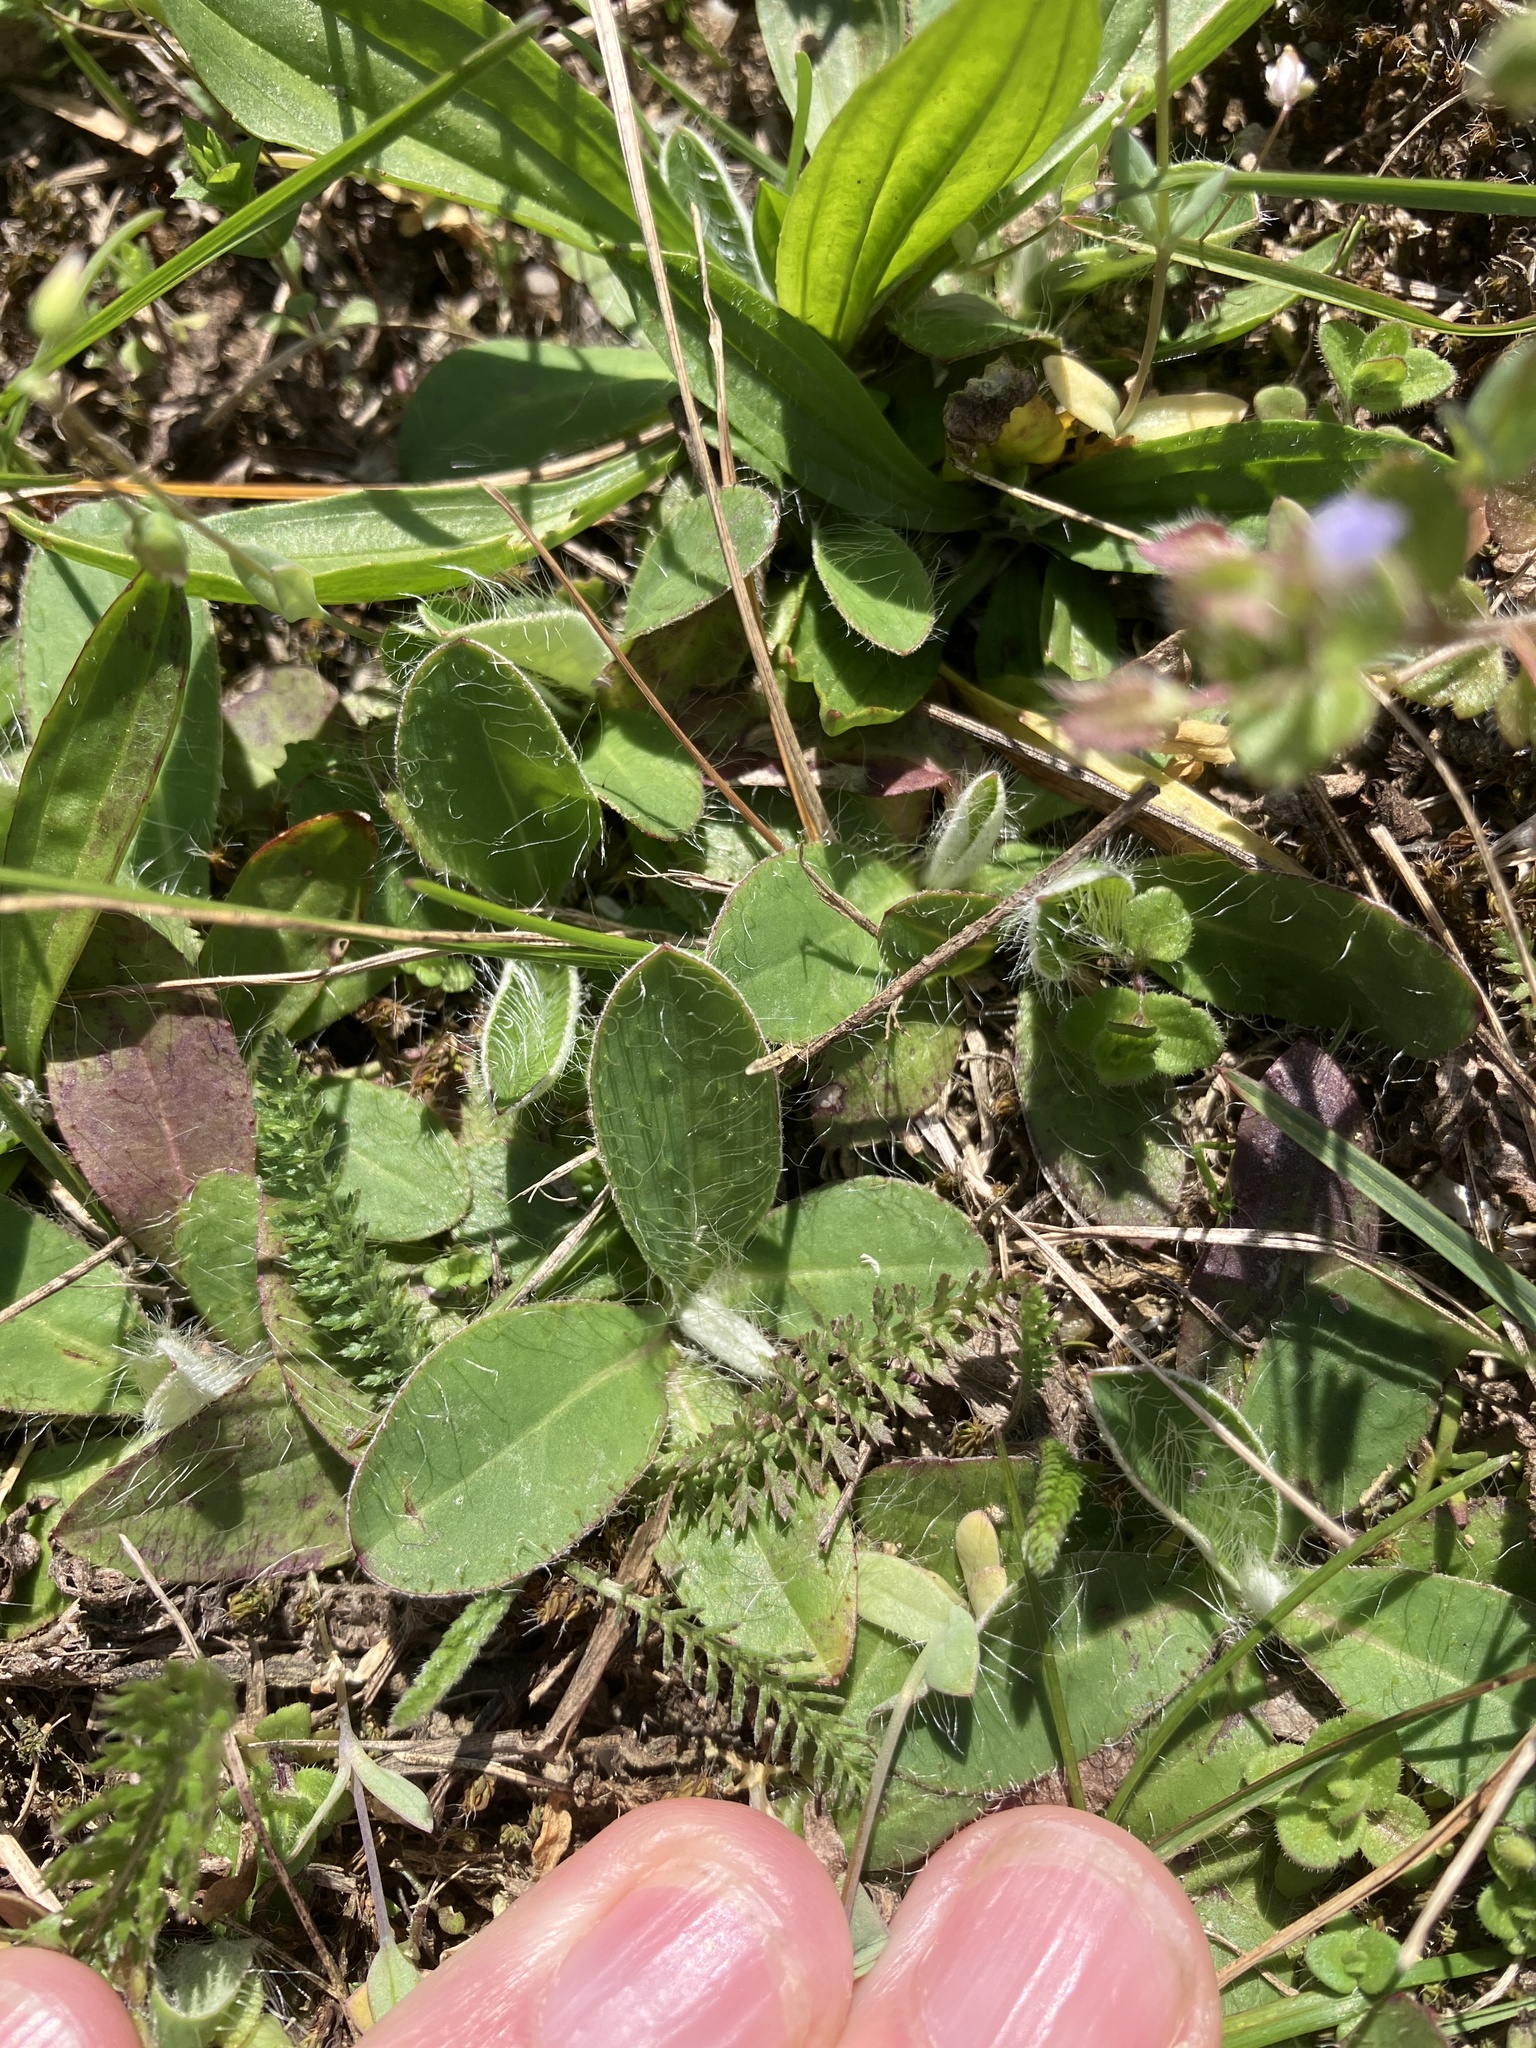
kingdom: Plantae
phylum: Tracheophyta
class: Magnoliopsida
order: Asterales
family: Asteraceae
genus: Pilosella
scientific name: Pilosella officinarum
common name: Mouse-ear hawkweed
